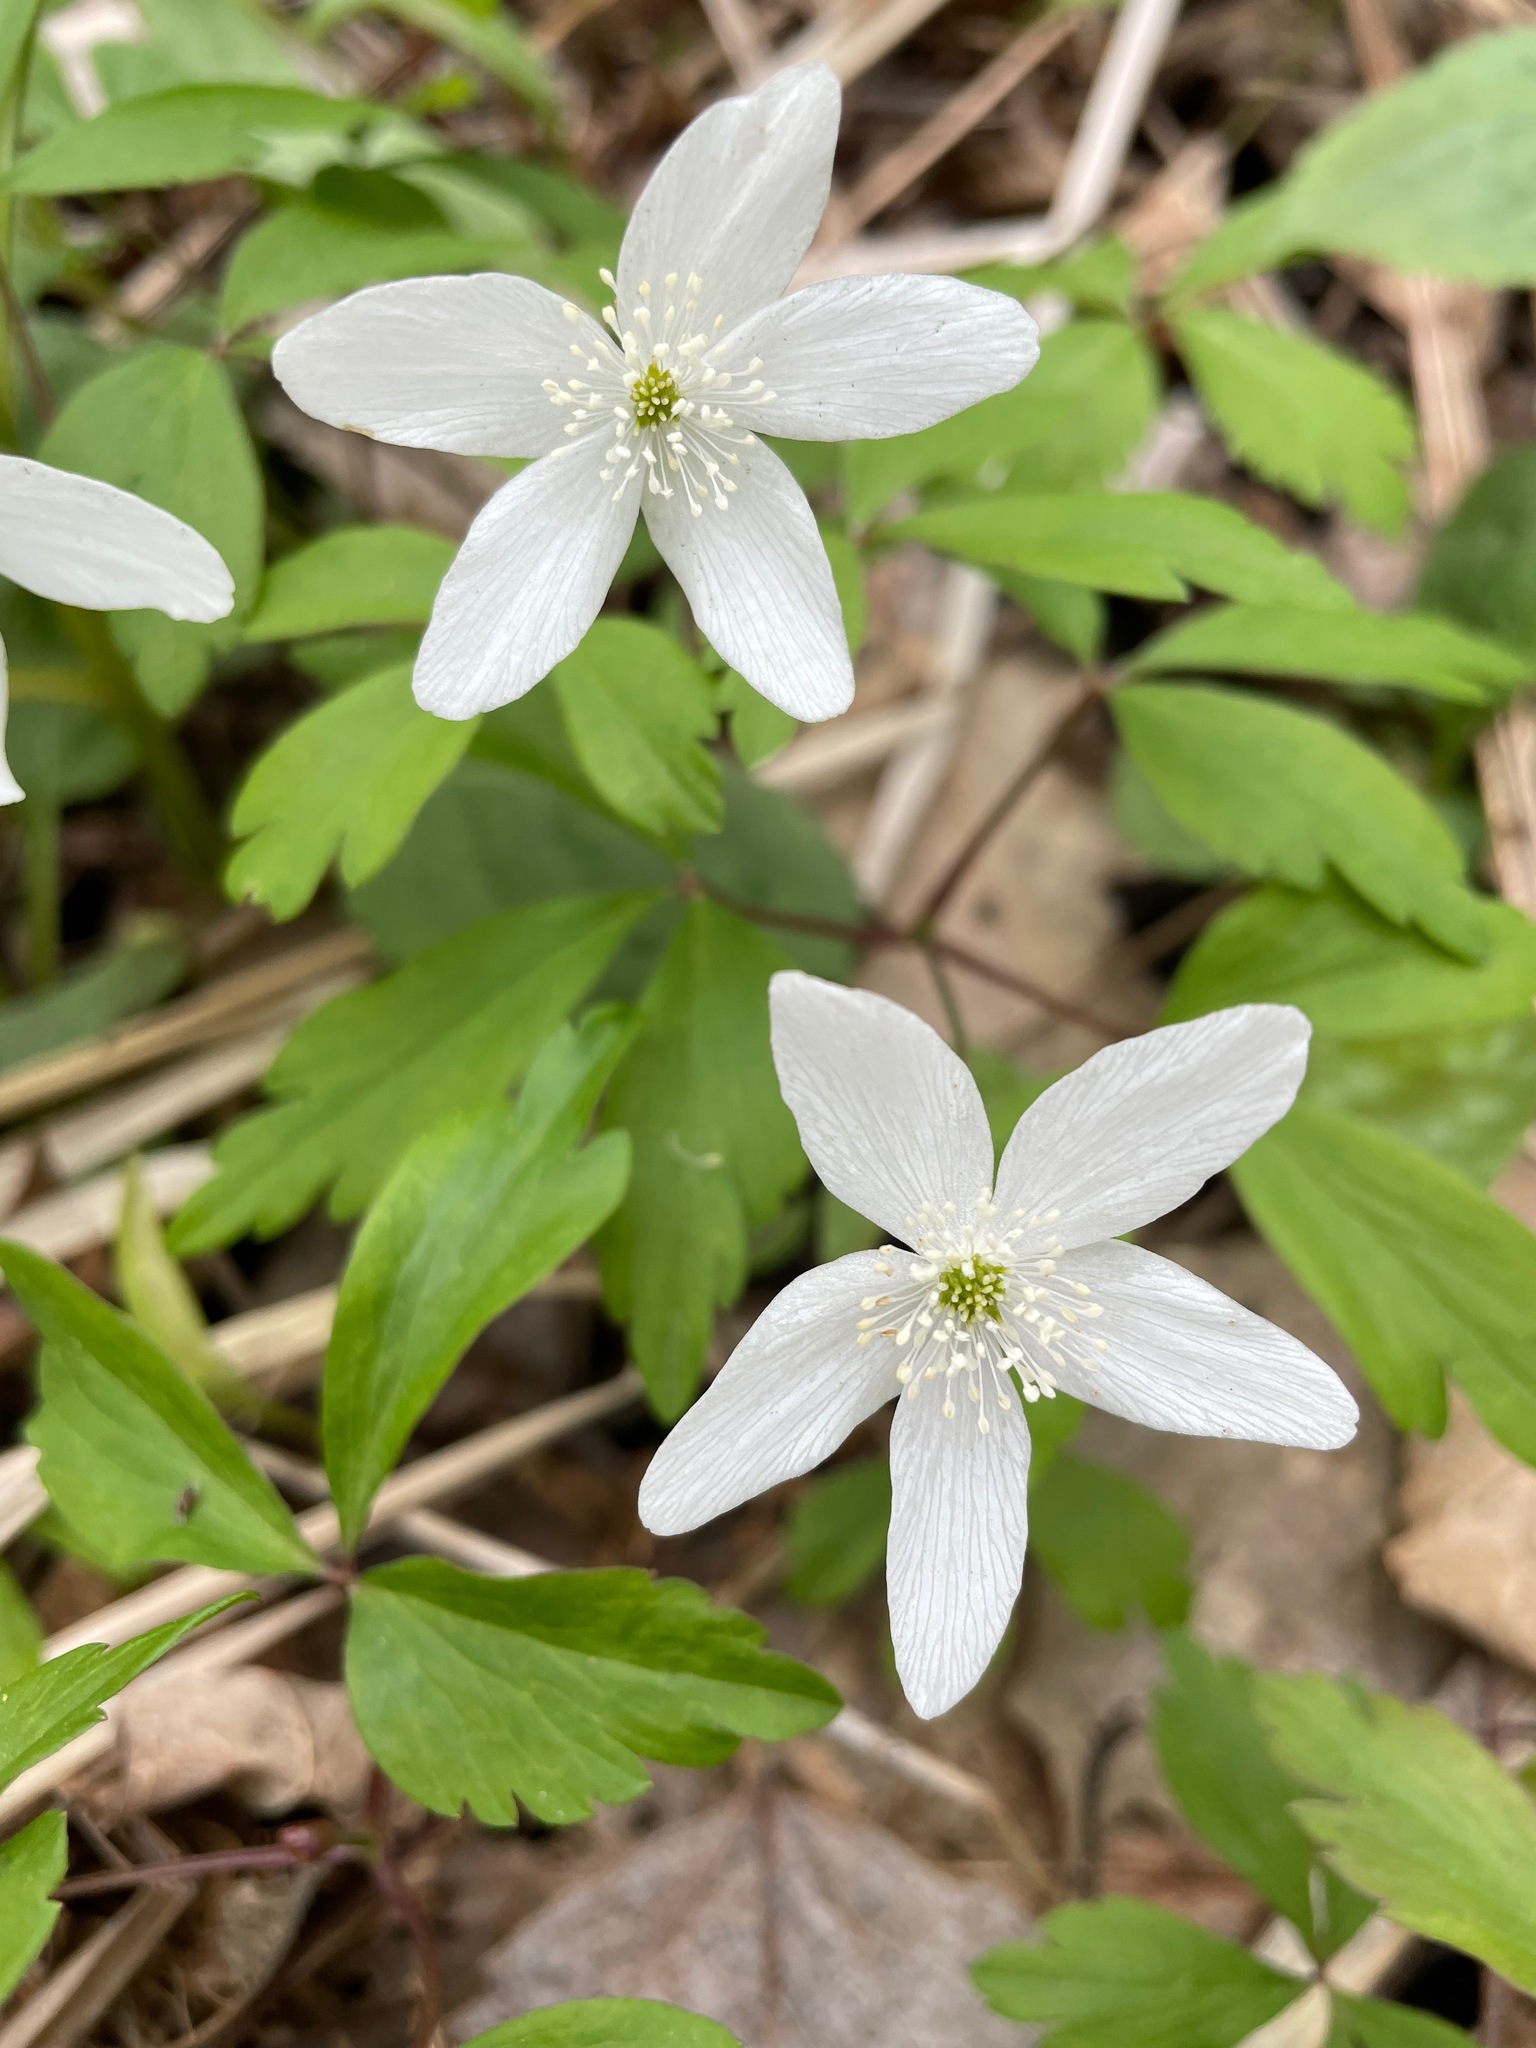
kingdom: Plantae
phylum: Tracheophyta
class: Magnoliopsida
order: Ranunculales
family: Ranunculaceae
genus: Anemone
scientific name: Anemone quinquefolia
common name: Wood anemone
